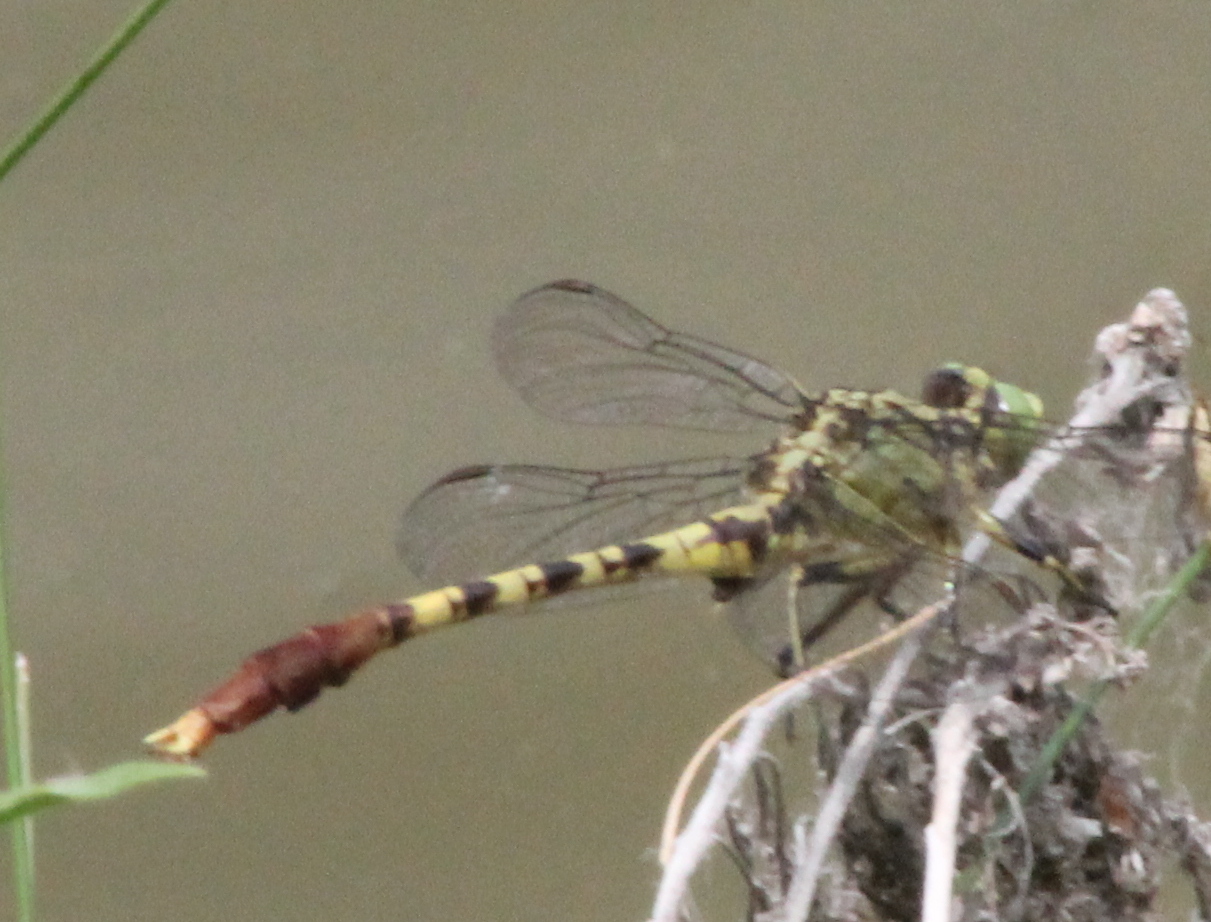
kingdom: Animalia
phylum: Arthropoda
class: Insecta
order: Odonata
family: Gomphidae
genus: Arigomphus
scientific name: Arigomphus submedianus
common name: Jade clubtail
